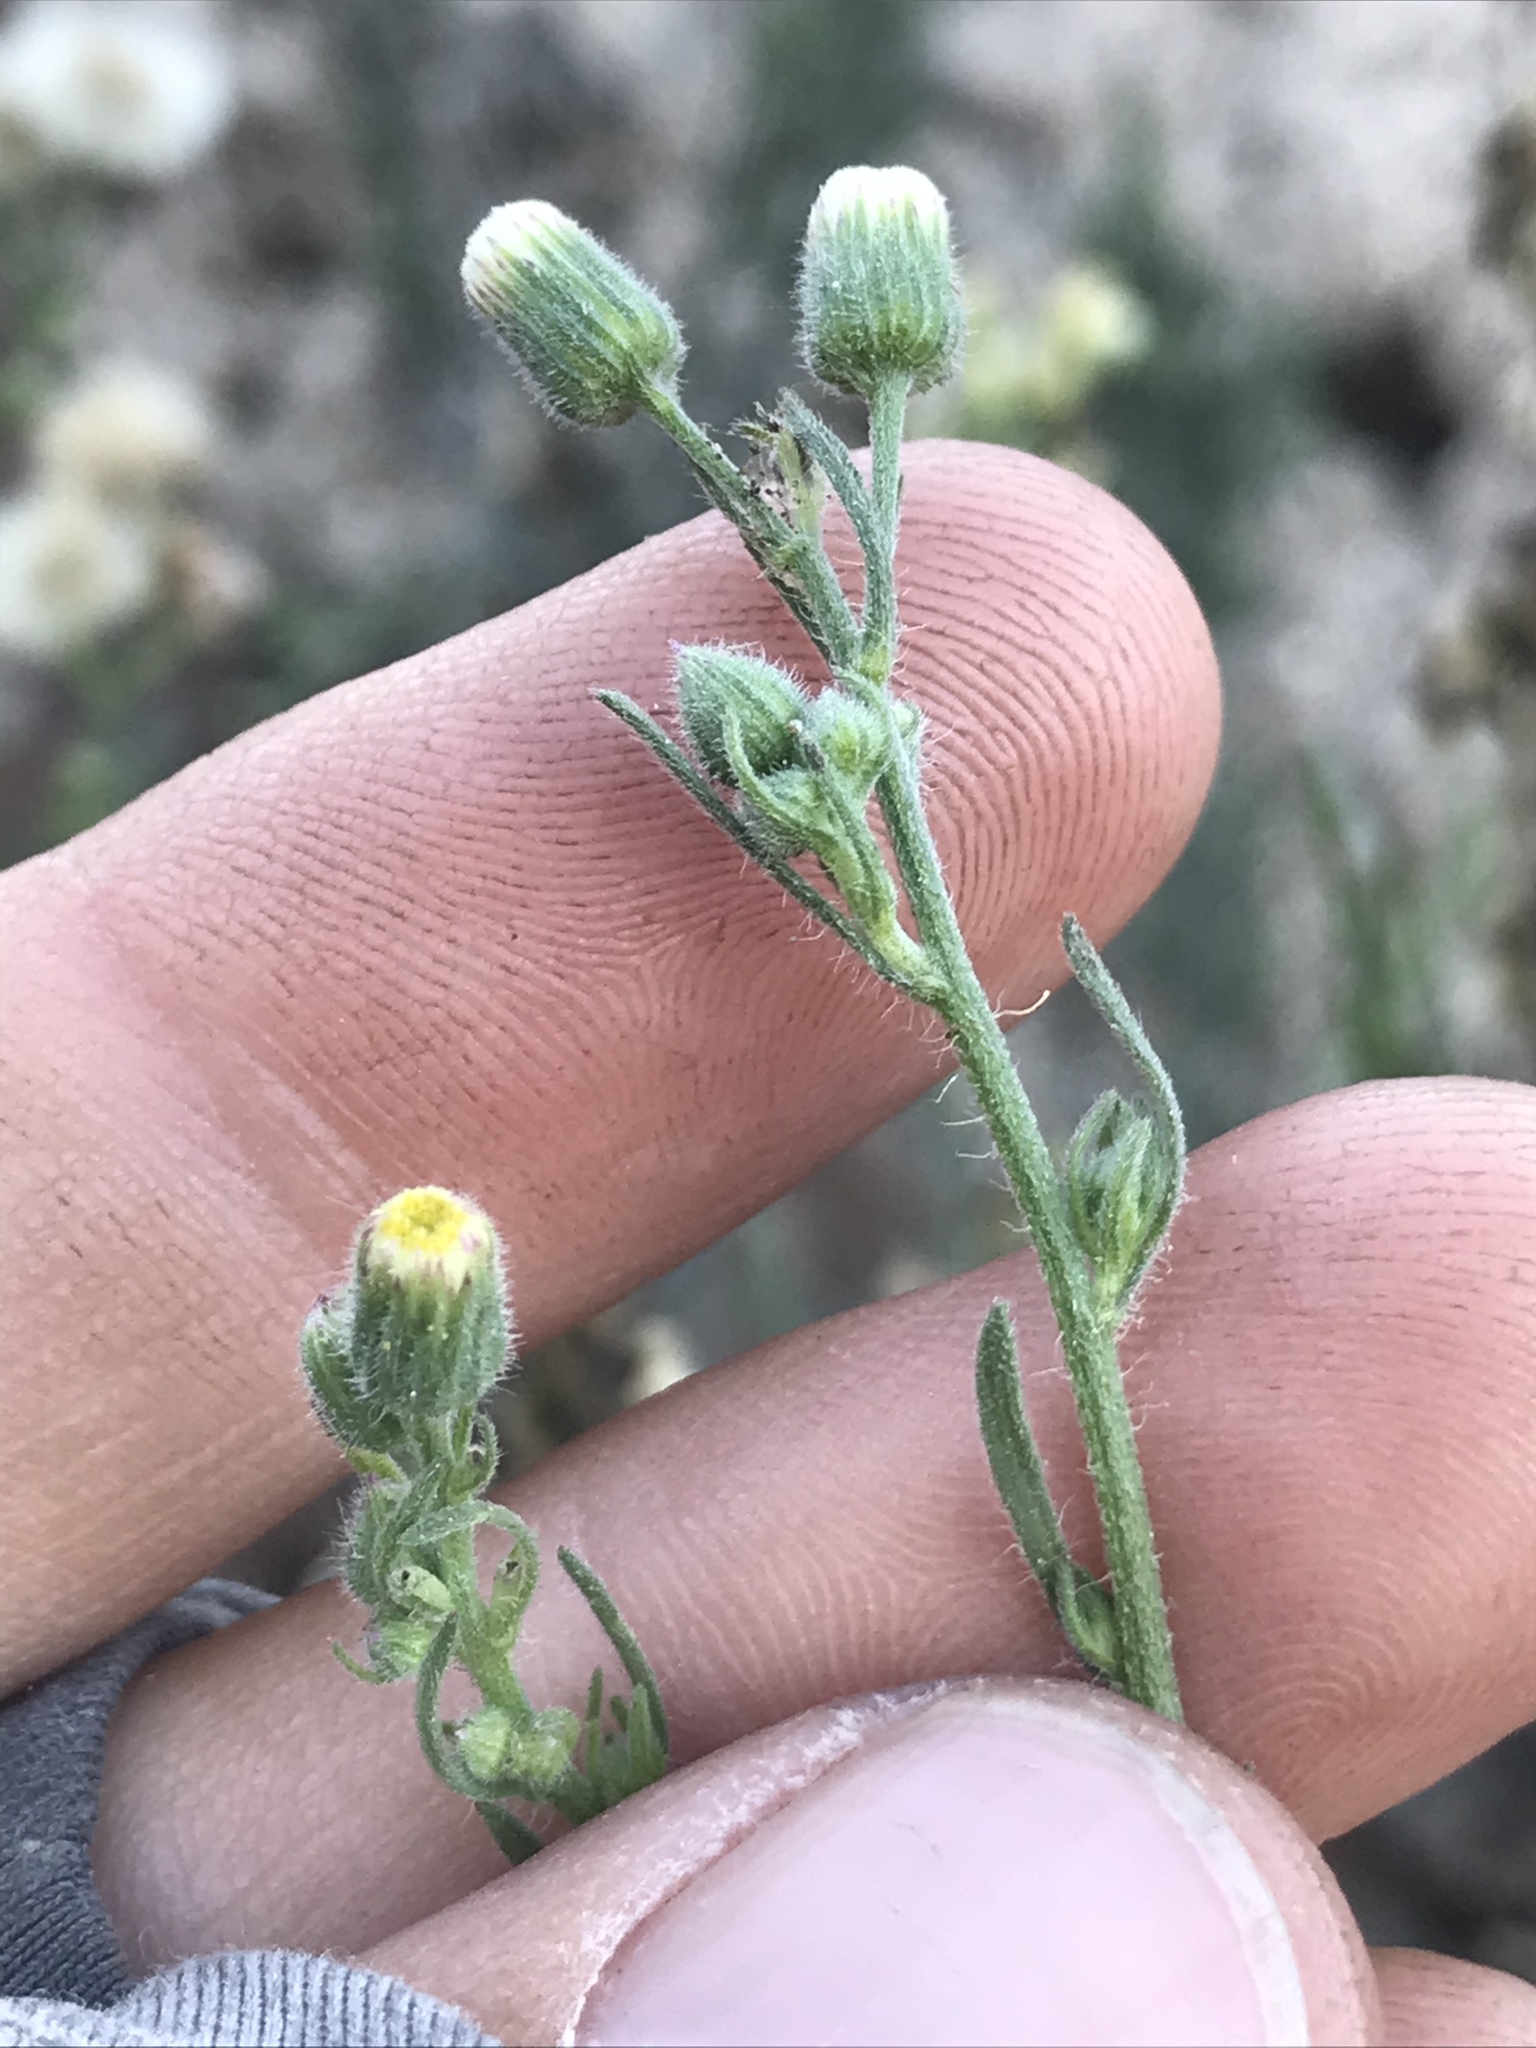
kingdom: Plantae
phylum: Tracheophyta
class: Magnoliopsida
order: Asterales
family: Asteraceae
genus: Erigeron
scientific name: Erigeron bonariensis
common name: Argentine fleabane
